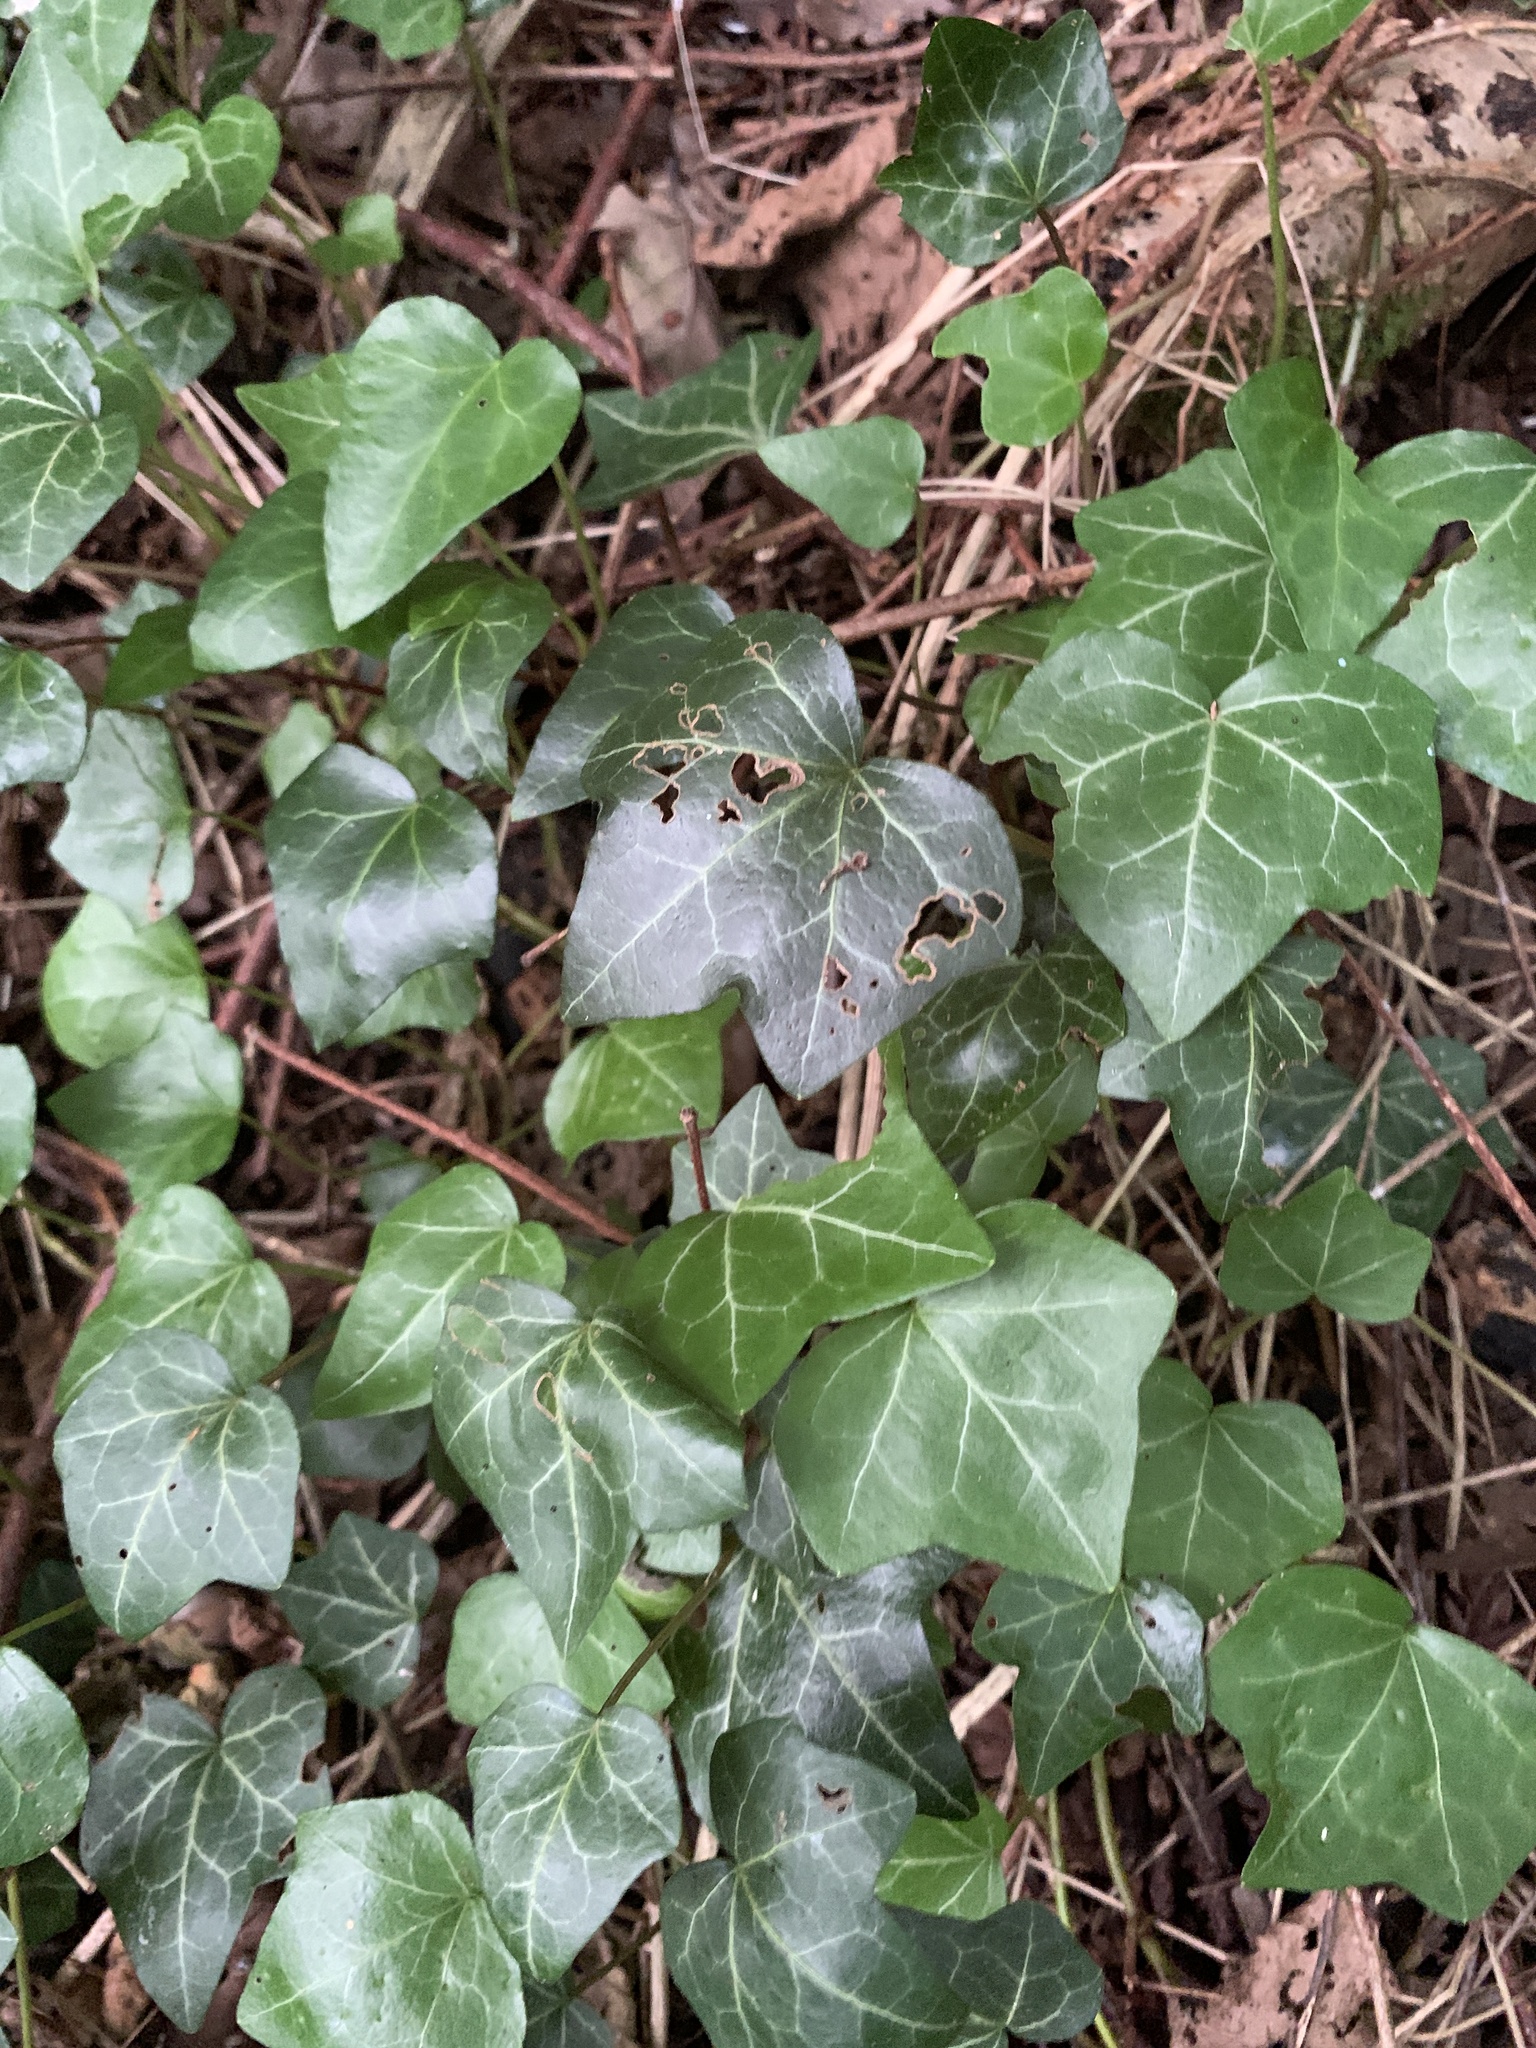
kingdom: Plantae
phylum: Tracheophyta
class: Magnoliopsida
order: Apiales
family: Araliaceae
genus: Hedera
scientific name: Hedera helix
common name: Ivy
